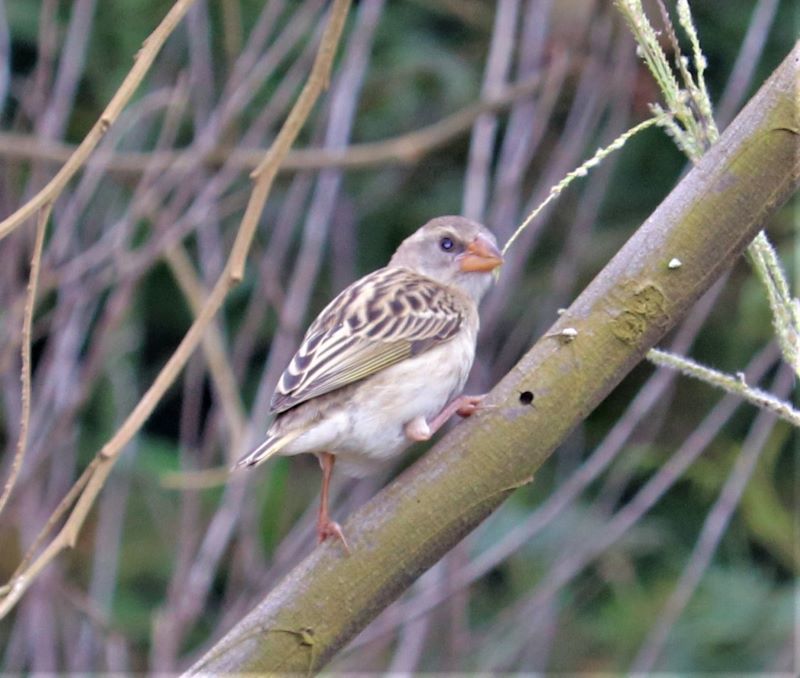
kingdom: Animalia
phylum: Chordata
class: Aves
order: Passeriformes
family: Viduidae
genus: Vidua
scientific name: Vidua macroura
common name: Pin-tailed whydah
